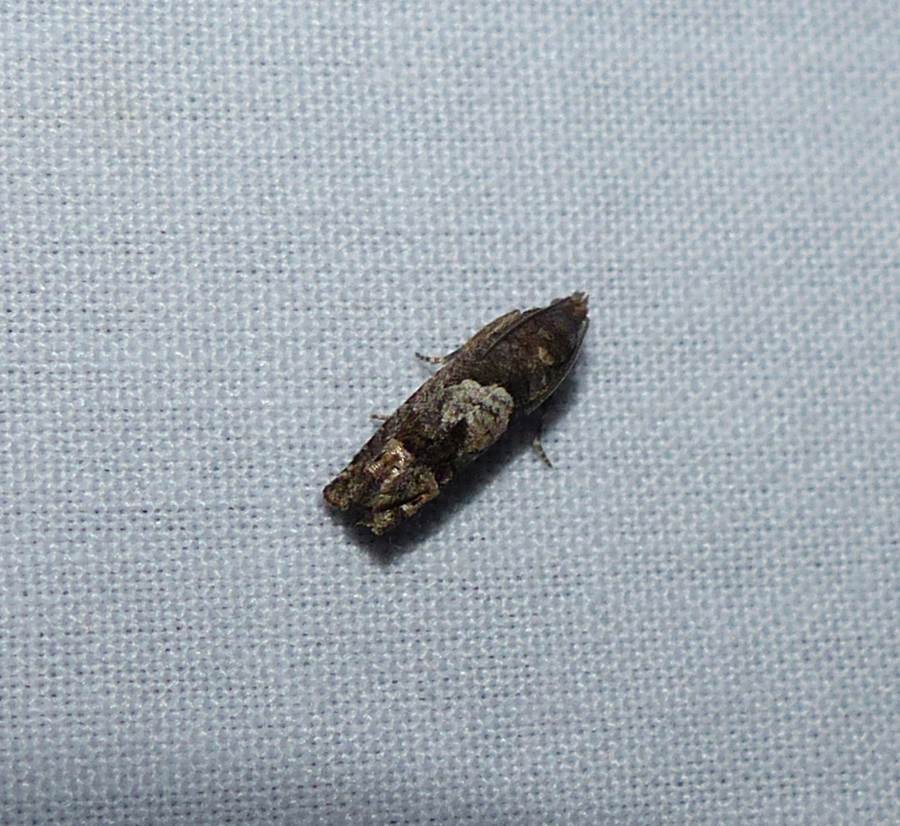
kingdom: Animalia
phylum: Arthropoda
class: Insecta
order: Lepidoptera
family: Tortricidae
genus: Eucosma
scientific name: Eucosma parmatana
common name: Aster eucosma moth
